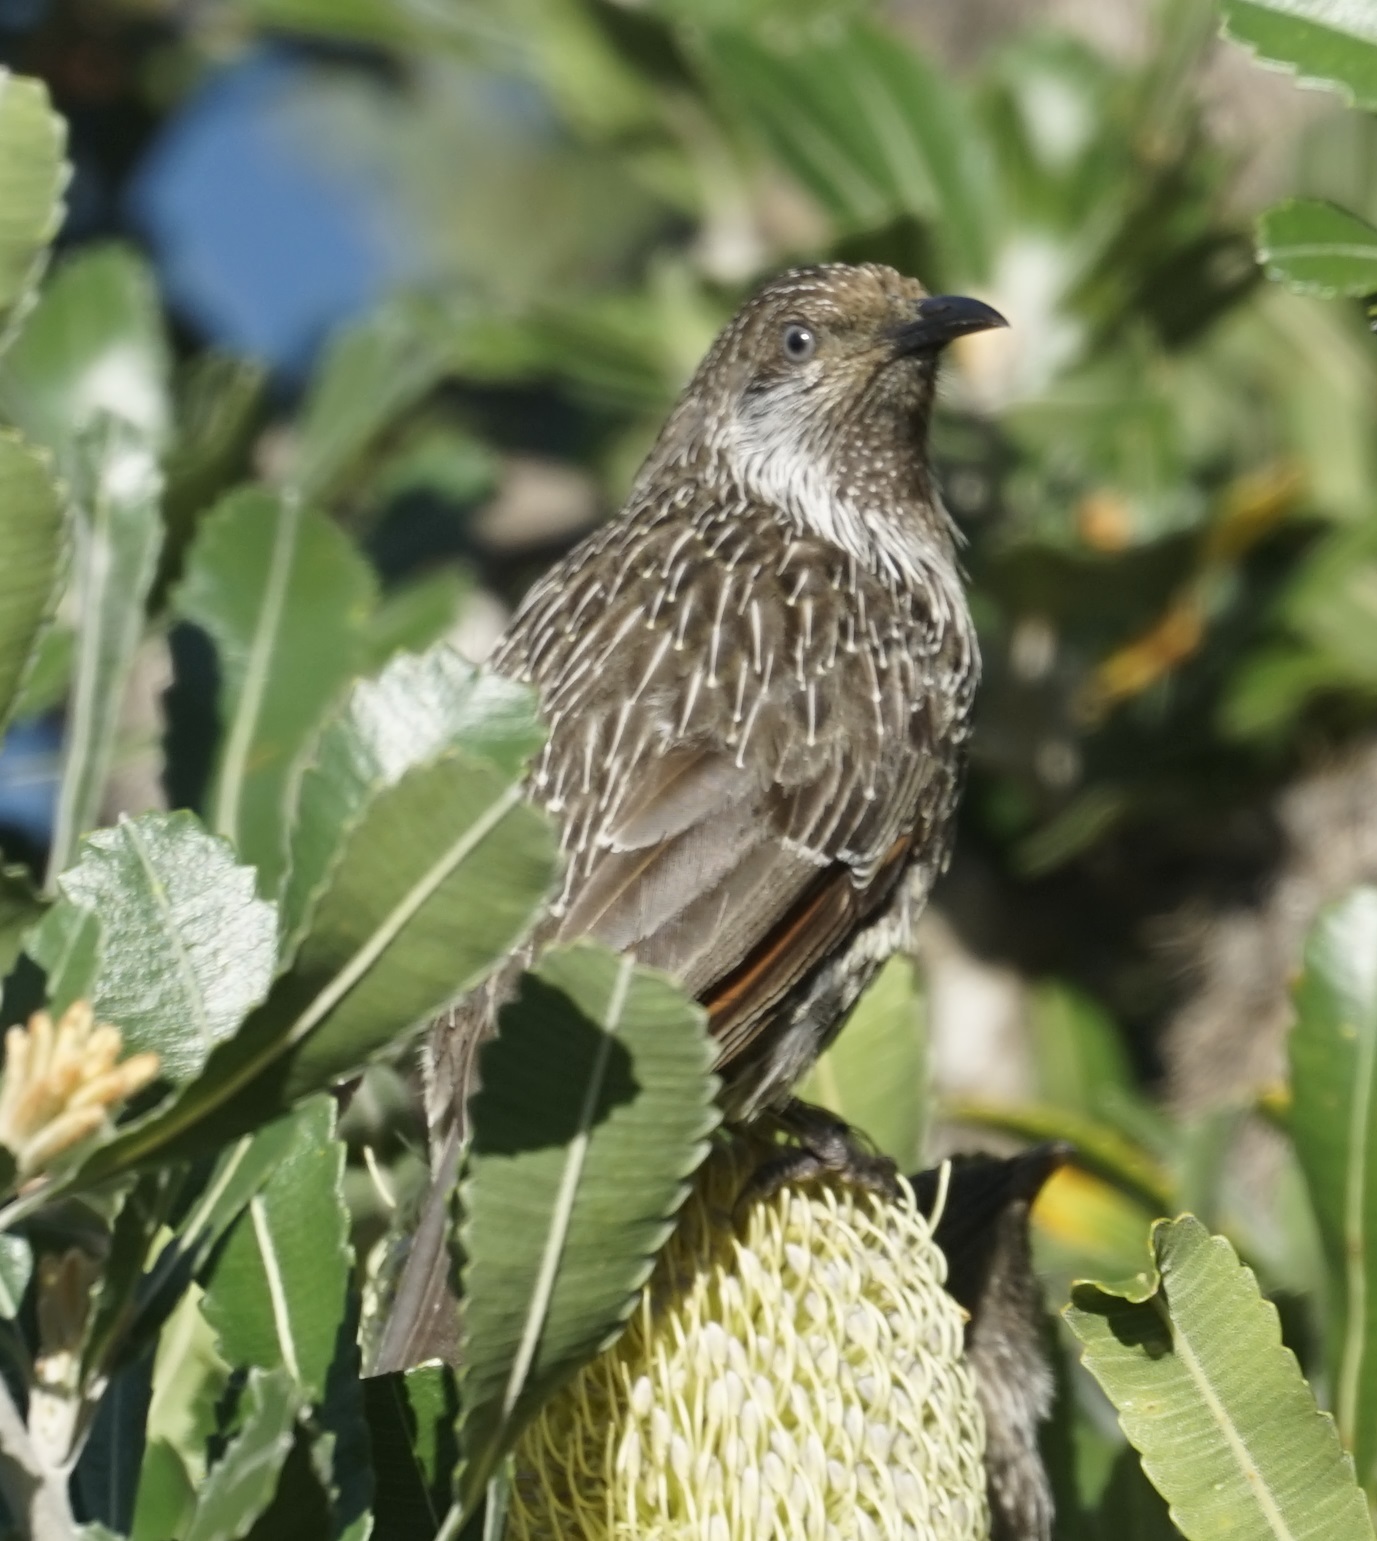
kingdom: Animalia
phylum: Chordata
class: Aves
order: Passeriformes
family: Meliphagidae
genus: Anthochaera
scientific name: Anthochaera chrysoptera
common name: Little wattlebird
